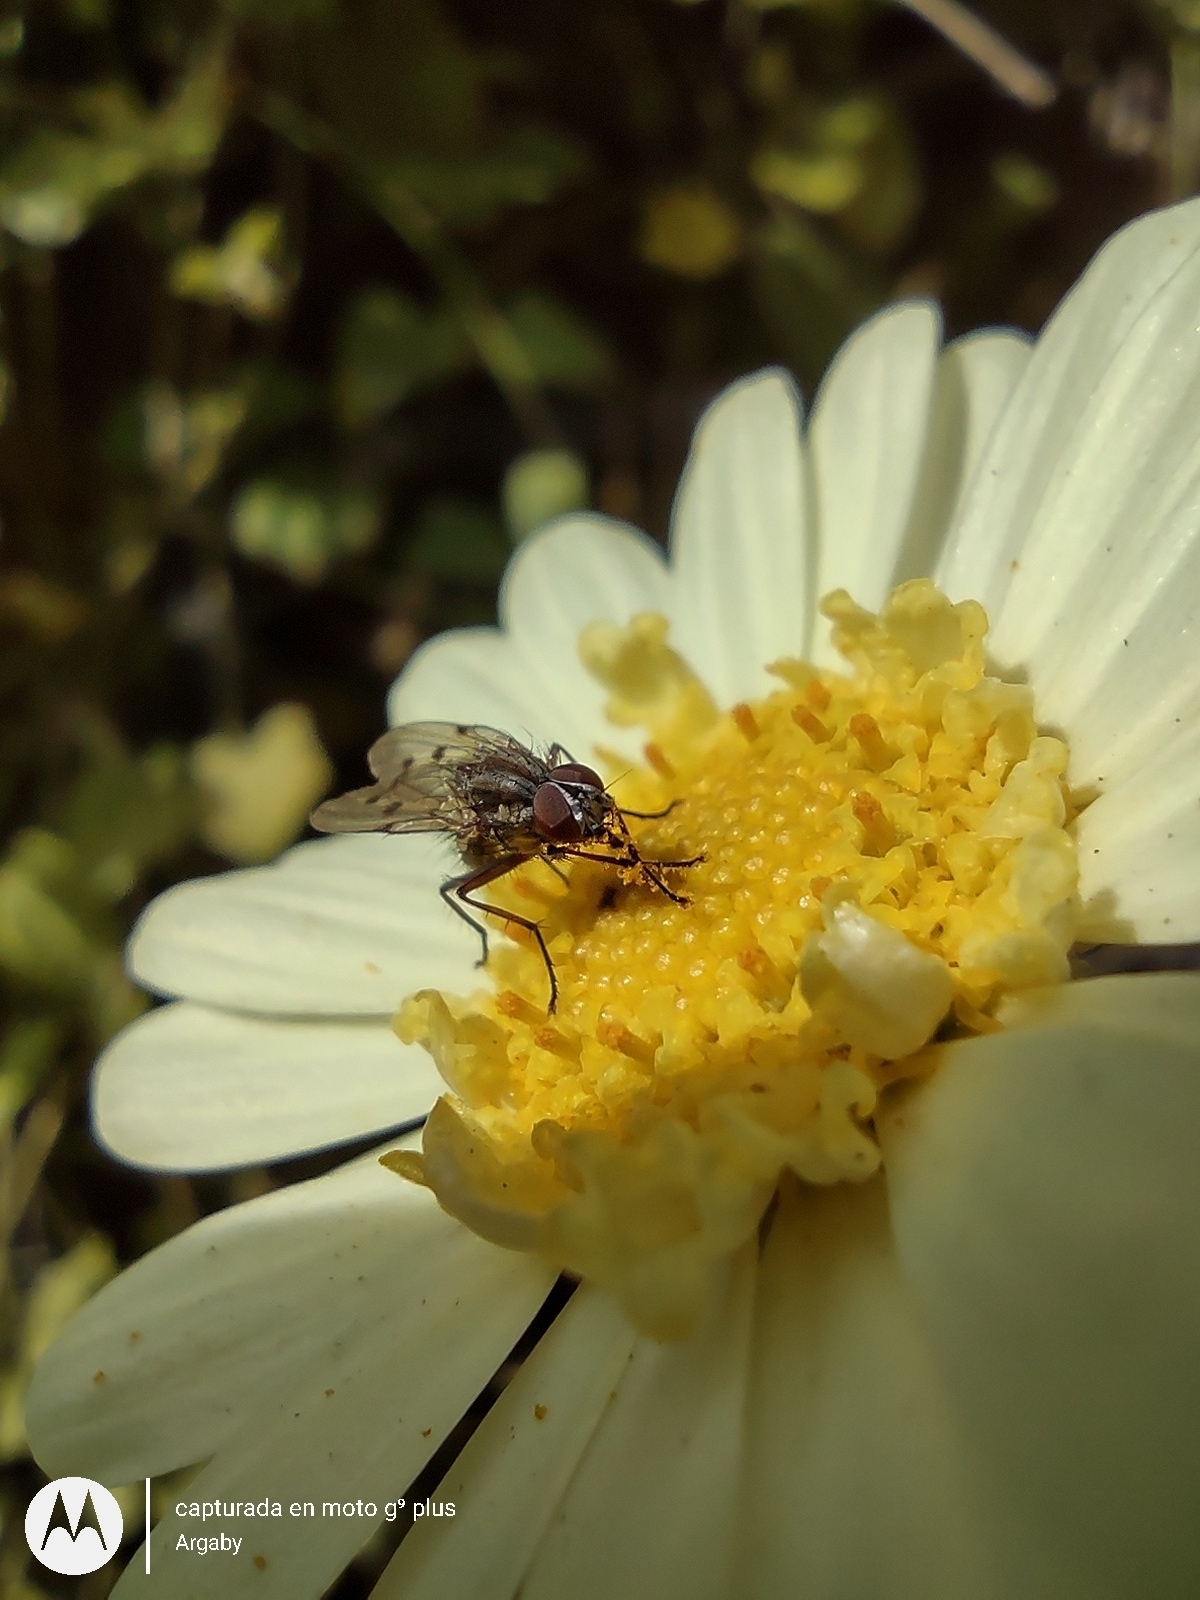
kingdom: Animalia
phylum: Arthropoda
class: Insecta
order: Diptera
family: Anthomyiidae
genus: Anthomyia
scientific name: Anthomyia punctipennis
